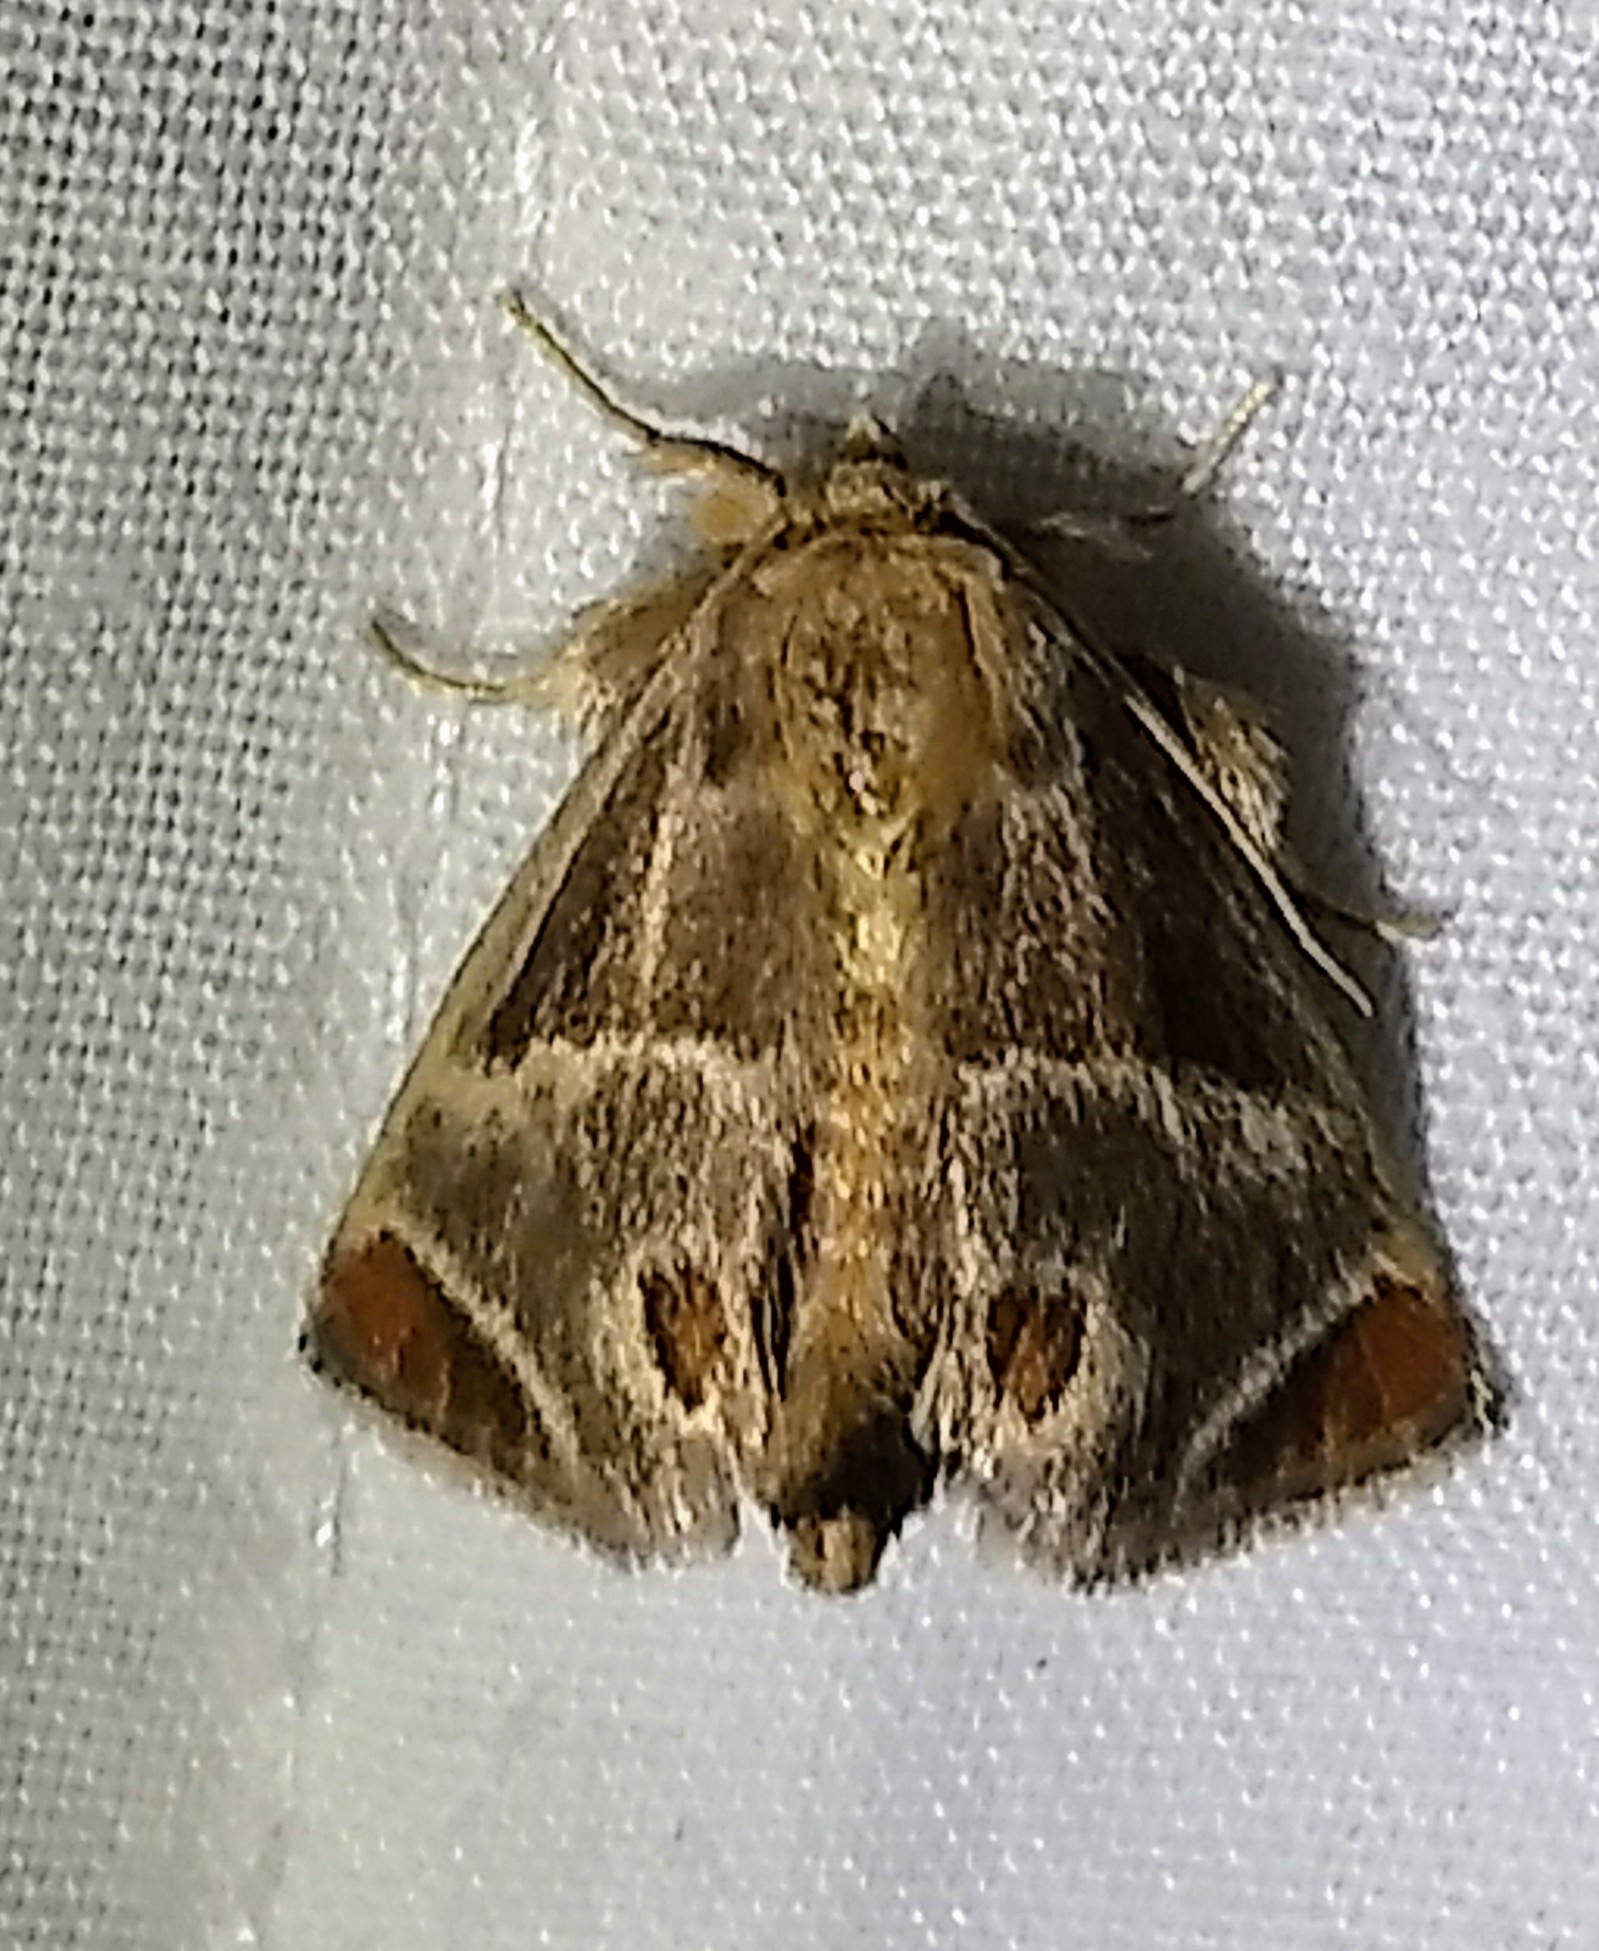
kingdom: Animalia
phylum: Arthropoda
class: Insecta
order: Lepidoptera
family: Limacodidae
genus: Apoda
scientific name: Apoda biguttata
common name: Shagreened slug moth
